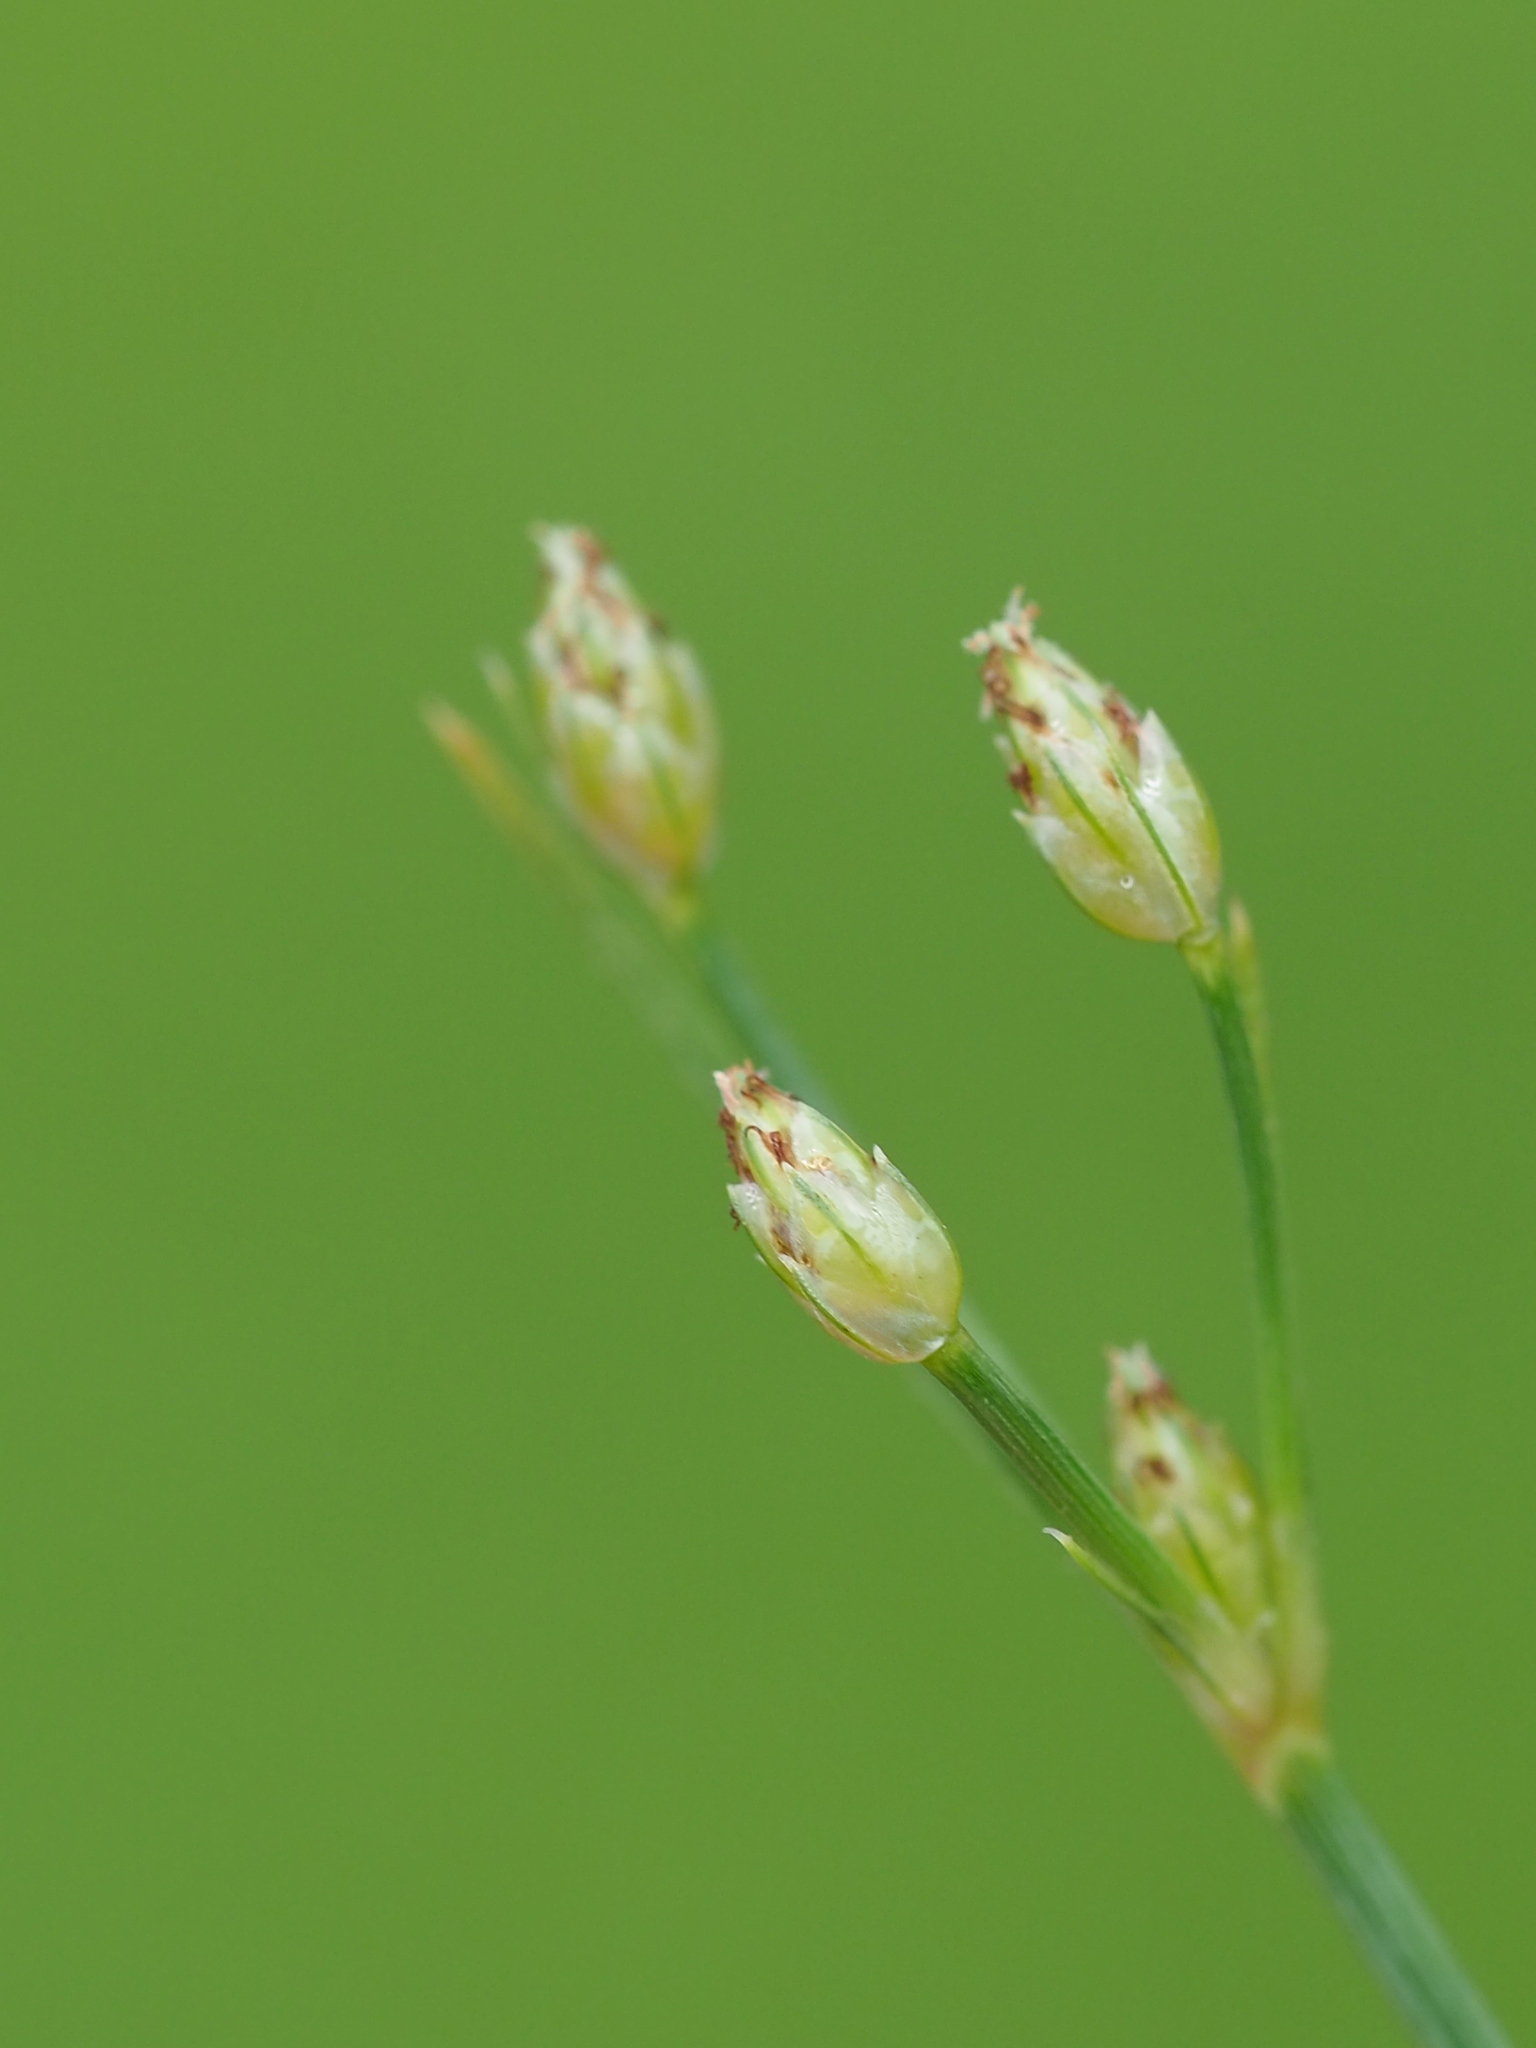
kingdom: Plantae
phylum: Tracheophyta
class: Liliopsida
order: Poales
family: Cyperaceae
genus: Fimbristylis
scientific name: Fimbristylis shimadana
